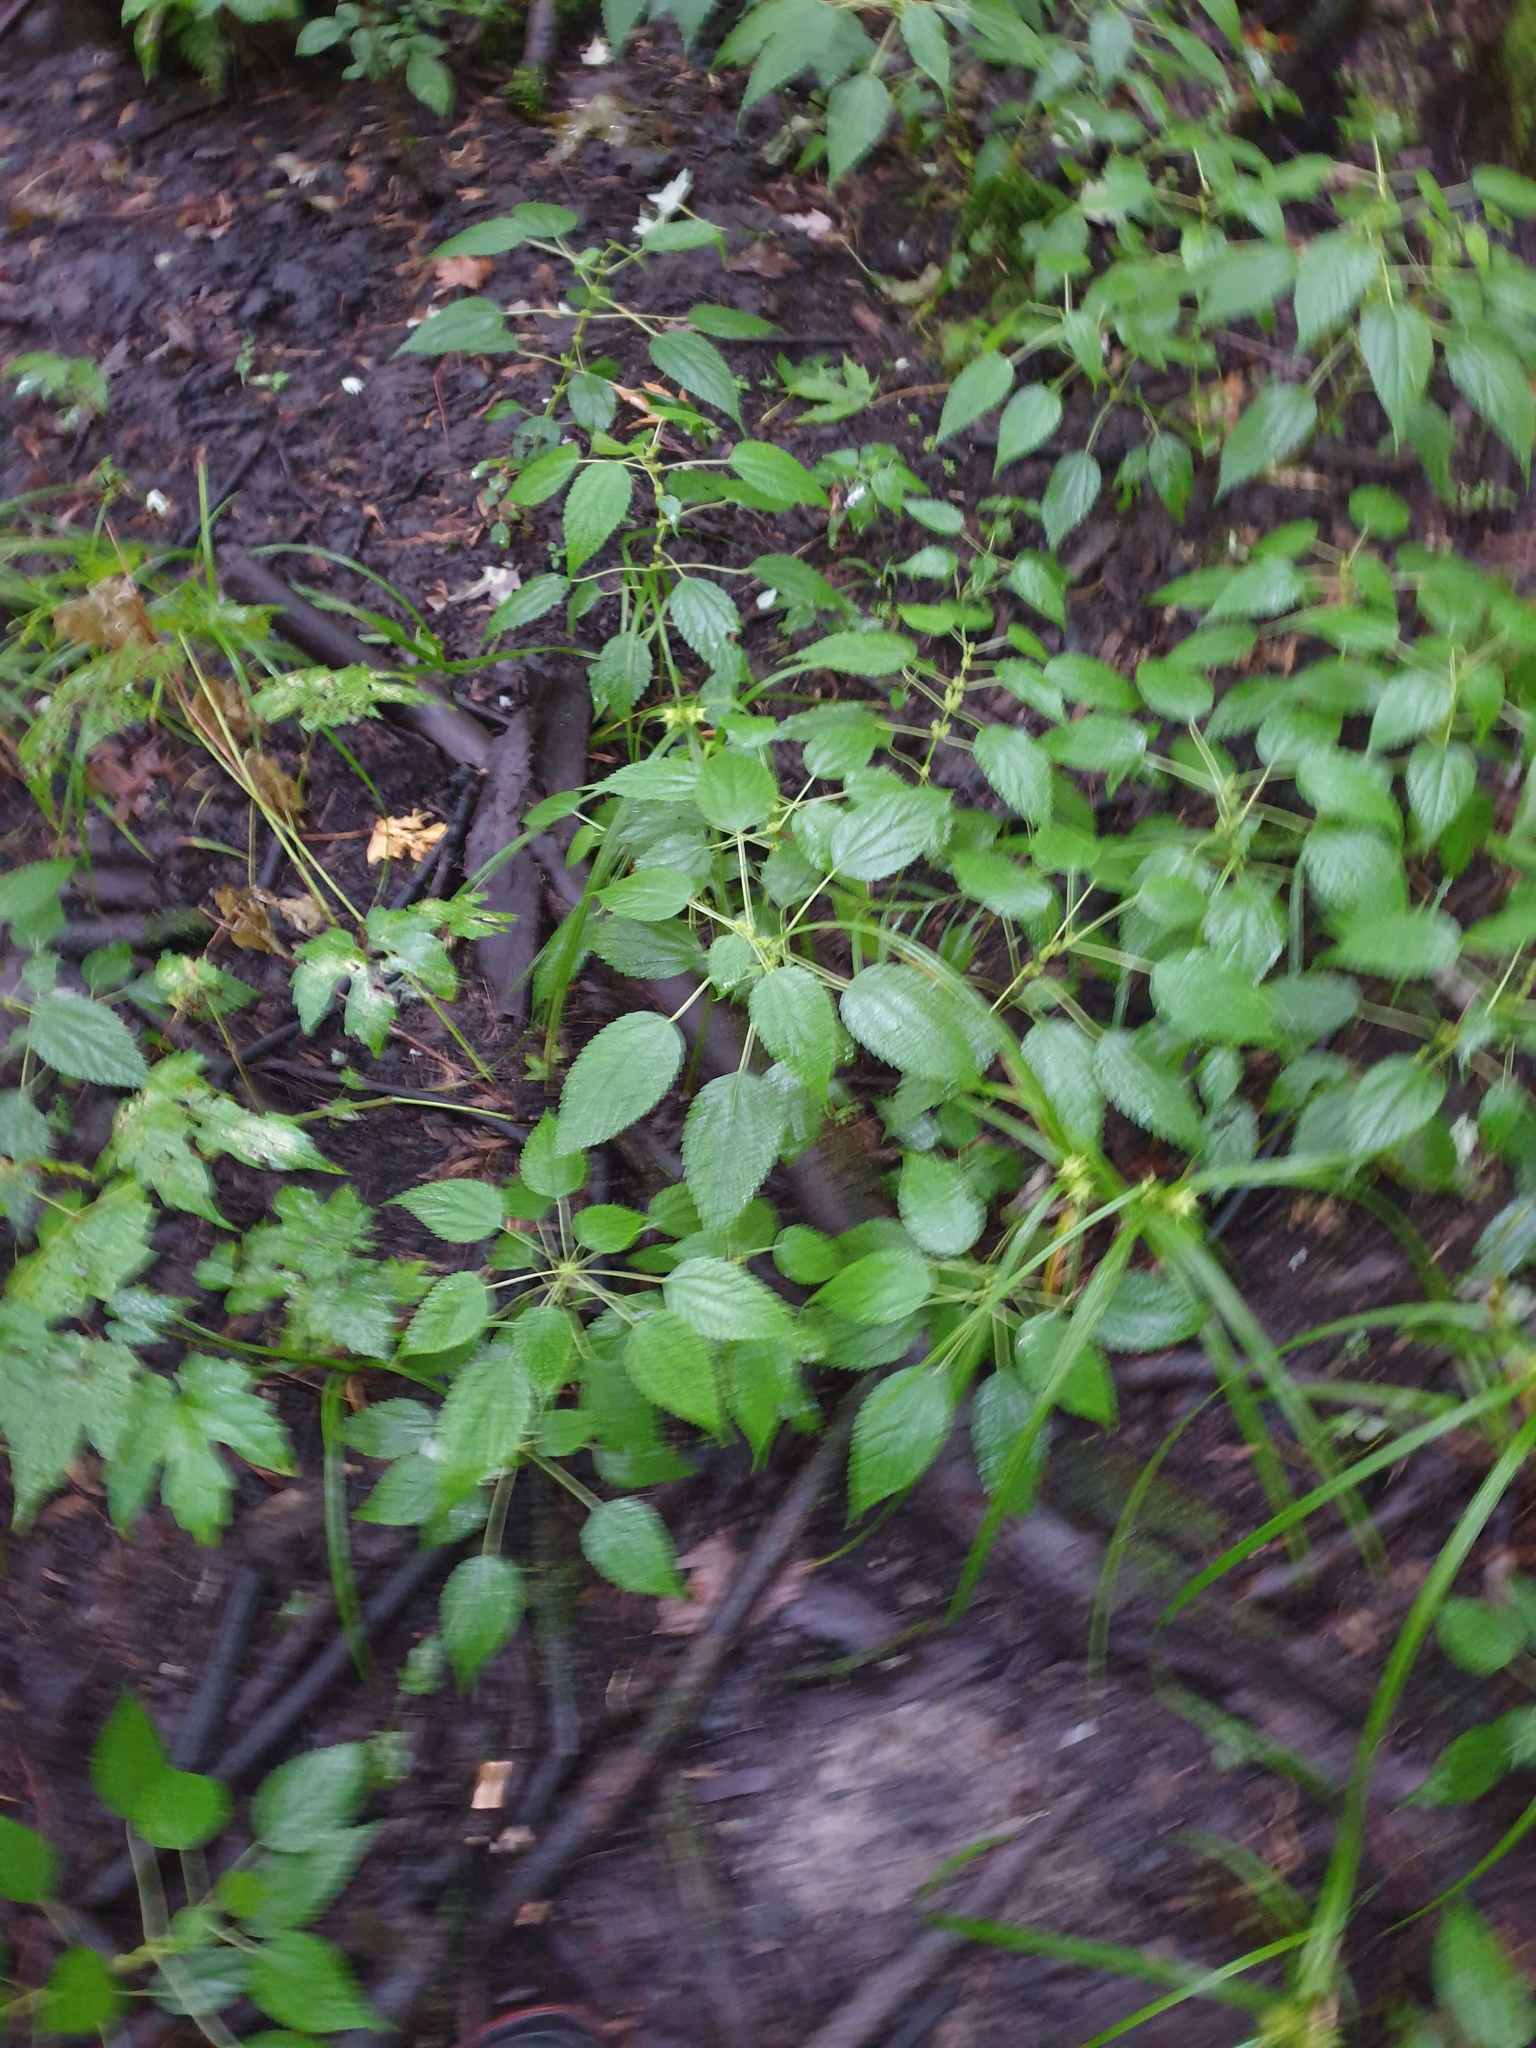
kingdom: Plantae
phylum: Tracheophyta
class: Liliopsida
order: Poales
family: Cyperaceae
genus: Carex
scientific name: Carex lupuliformis
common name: False hop sedge
